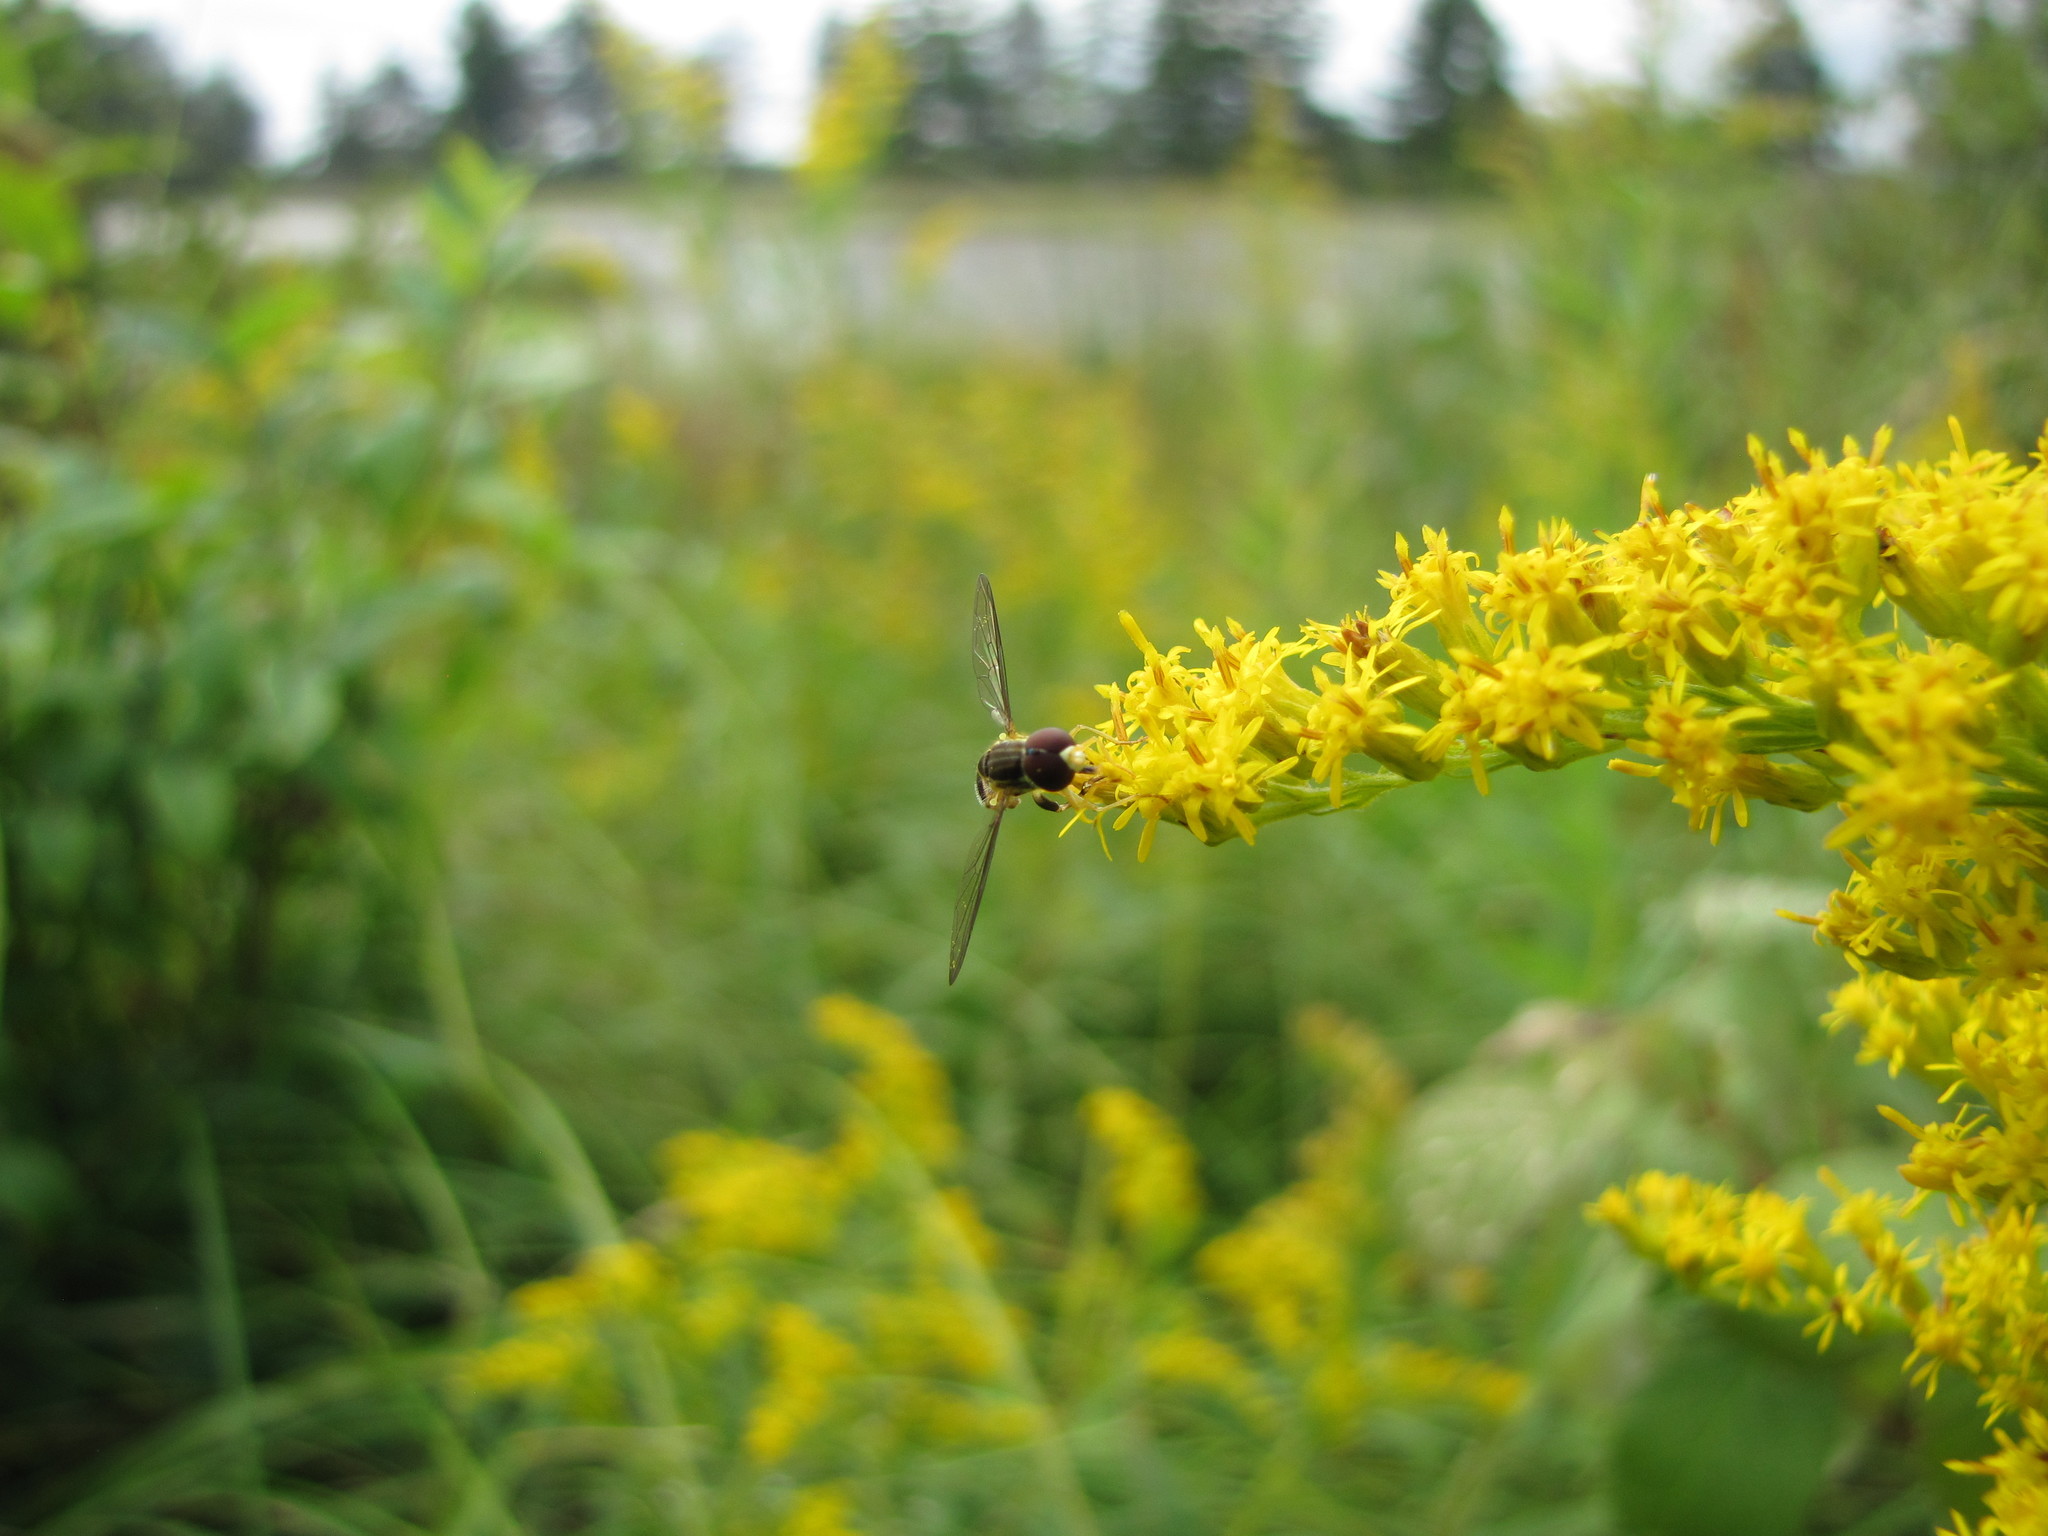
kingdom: Animalia
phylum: Arthropoda
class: Insecta
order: Diptera
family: Syrphidae
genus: Toxomerus
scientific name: Toxomerus geminatus
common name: Eastern calligrapher
